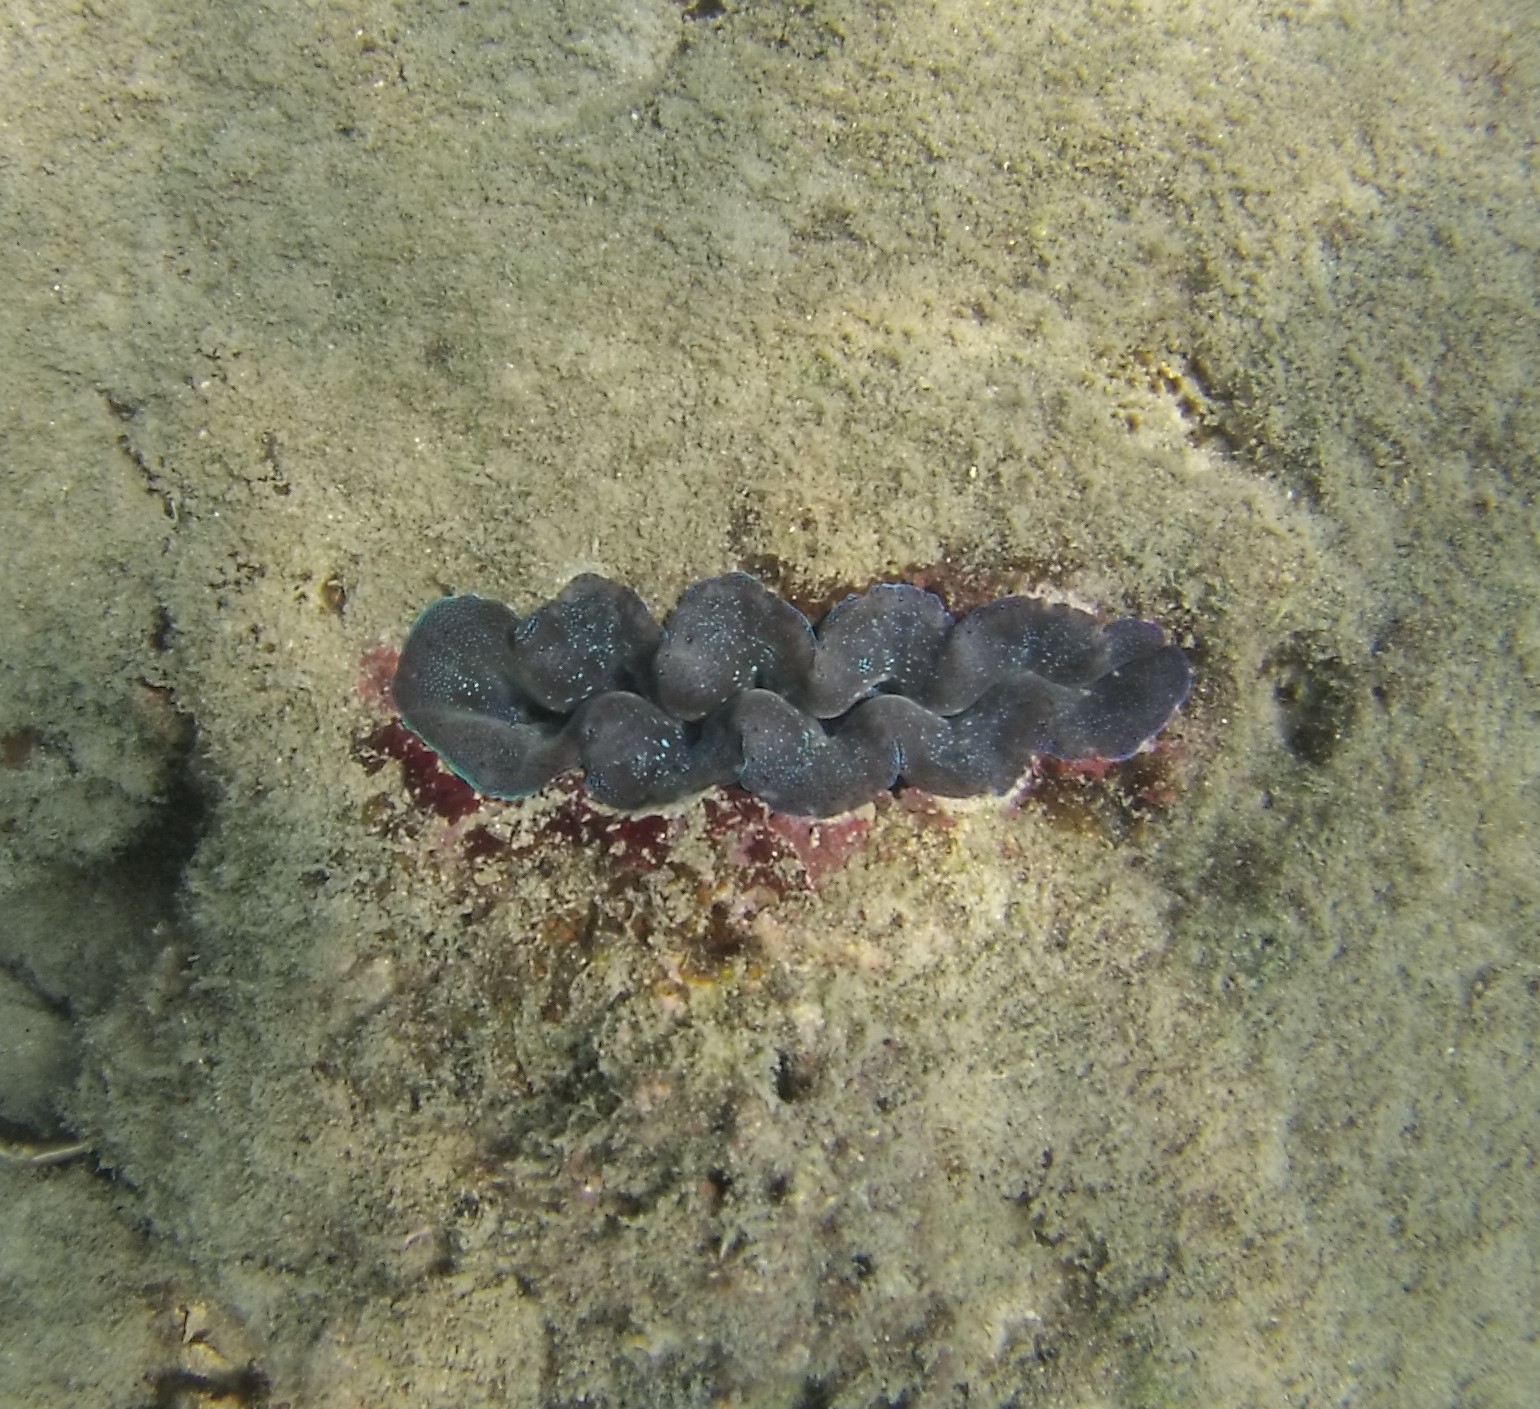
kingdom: Animalia
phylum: Mollusca
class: Bivalvia
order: Cardiida
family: Cardiidae
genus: Tridacna
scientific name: Tridacna crocea
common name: Boring clam
